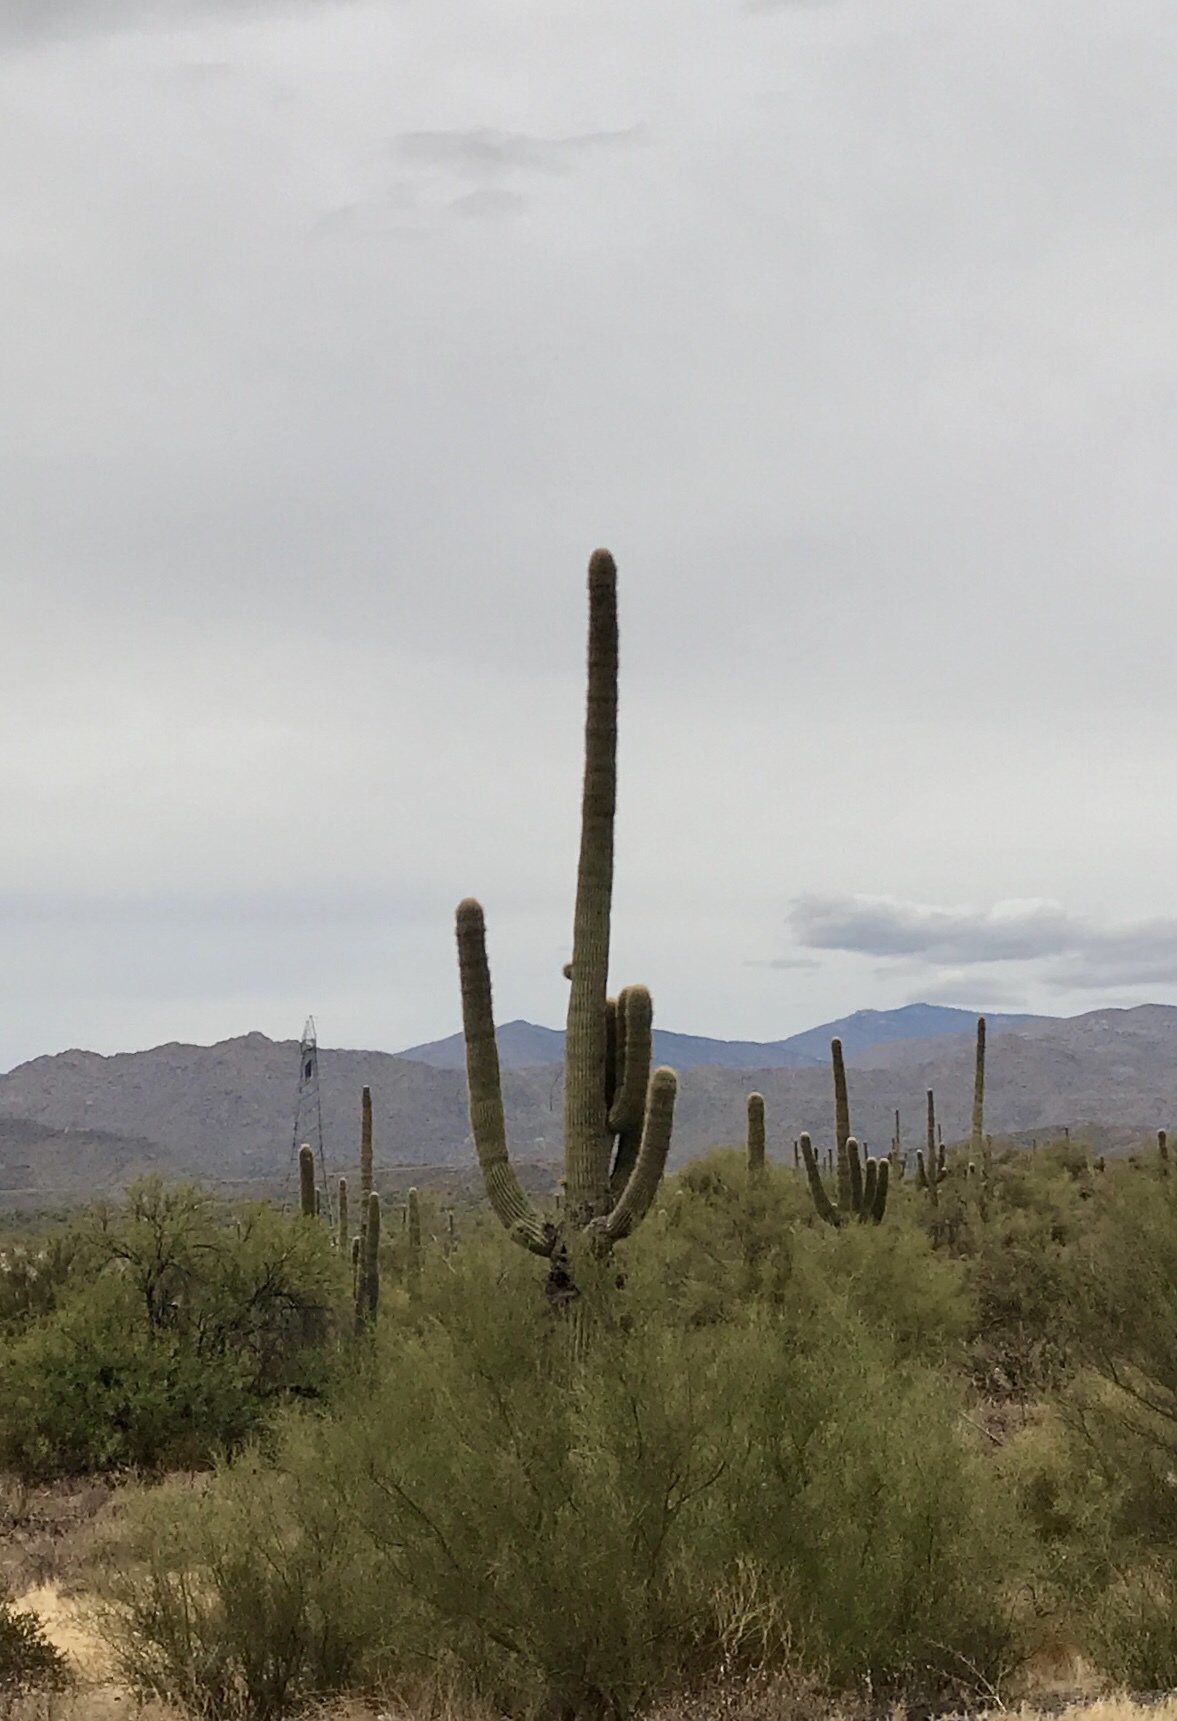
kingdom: Plantae
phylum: Tracheophyta
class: Magnoliopsida
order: Caryophyllales
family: Cactaceae
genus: Carnegiea
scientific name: Carnegiea gigantea
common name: Saguaro
